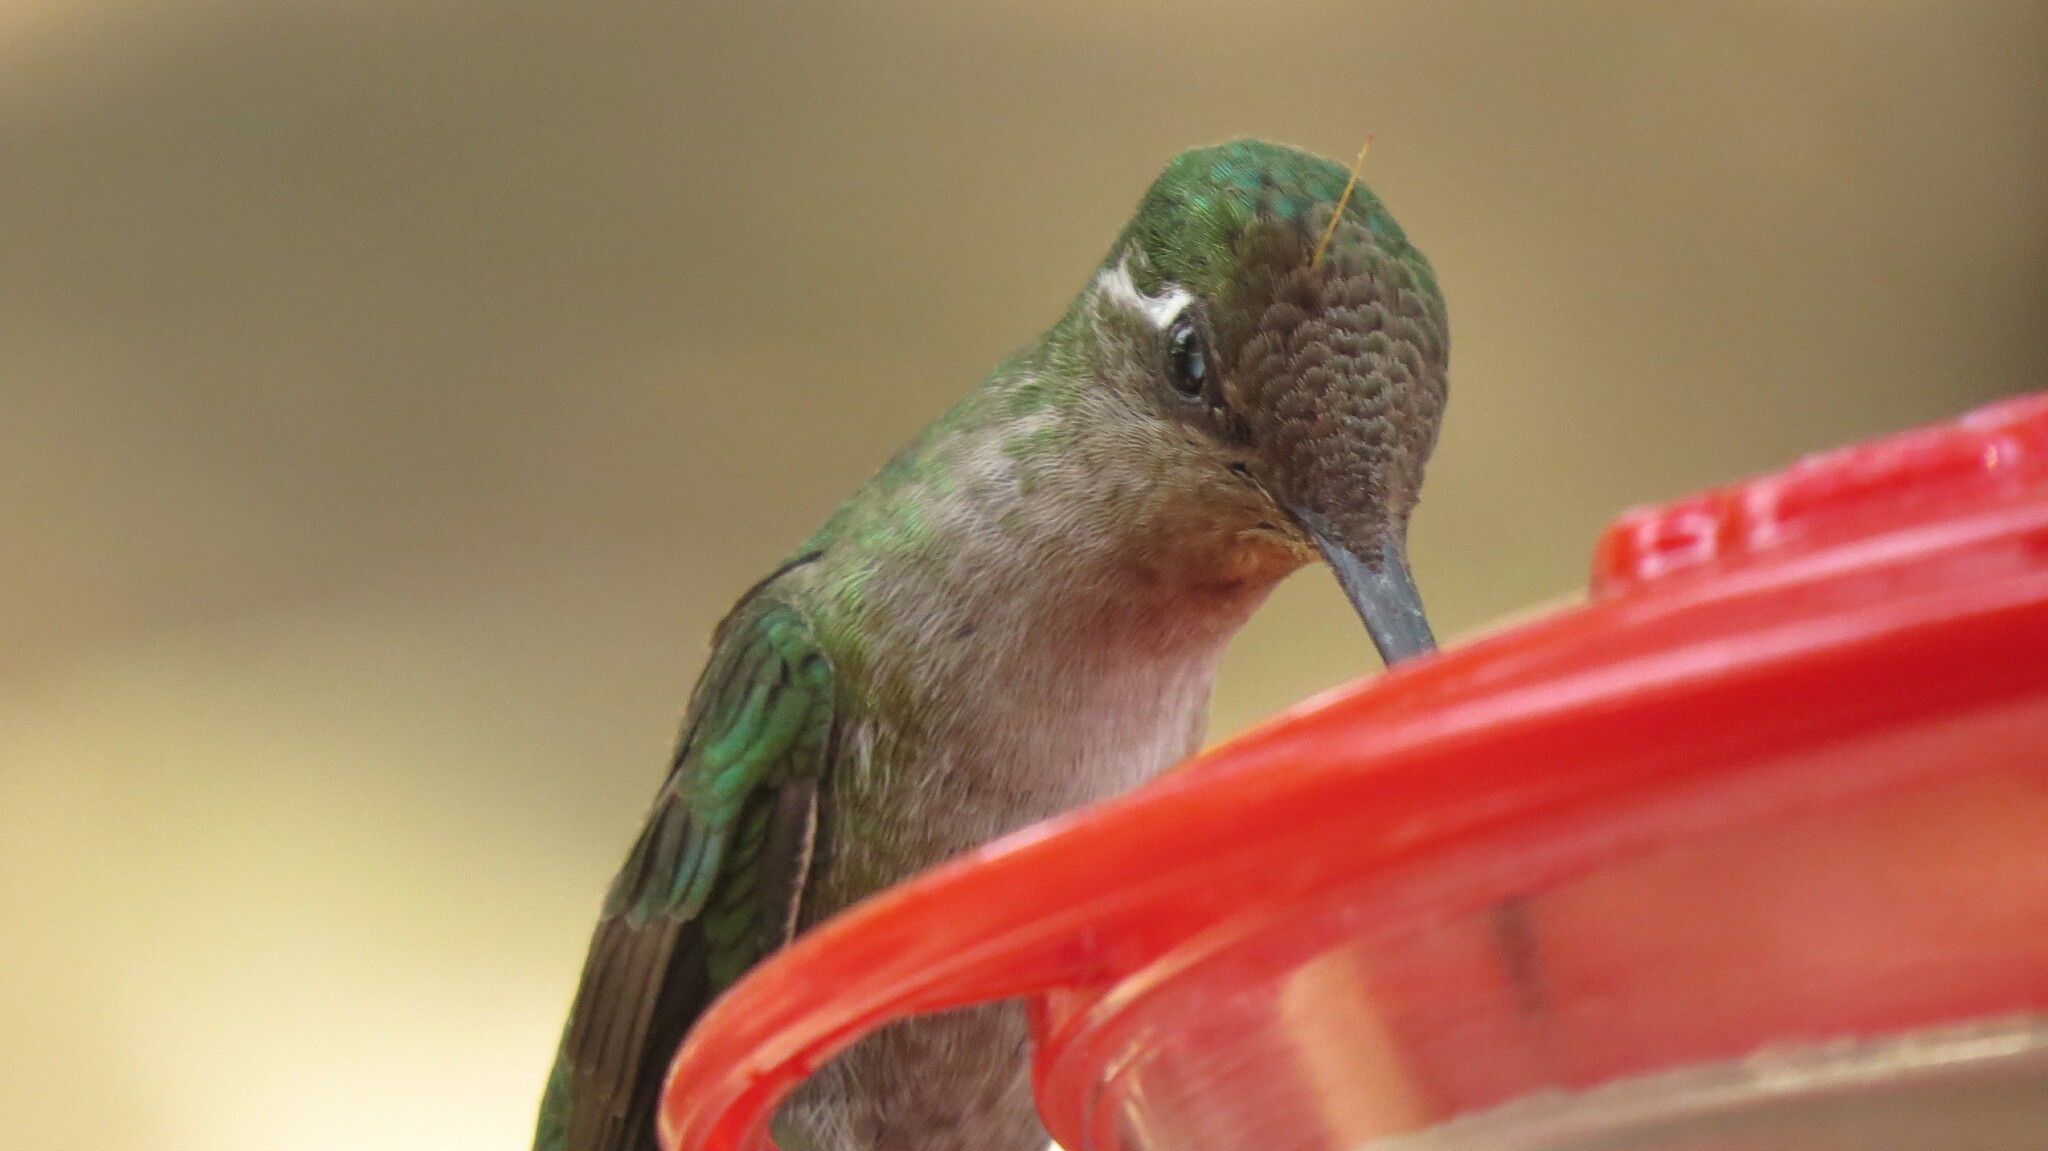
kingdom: Animalia
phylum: Chordata
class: Aves
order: Apodiformes
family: Trochilidae
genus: Eugenes
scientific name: Eugenes fulgens
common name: Magnificent hummingbird
